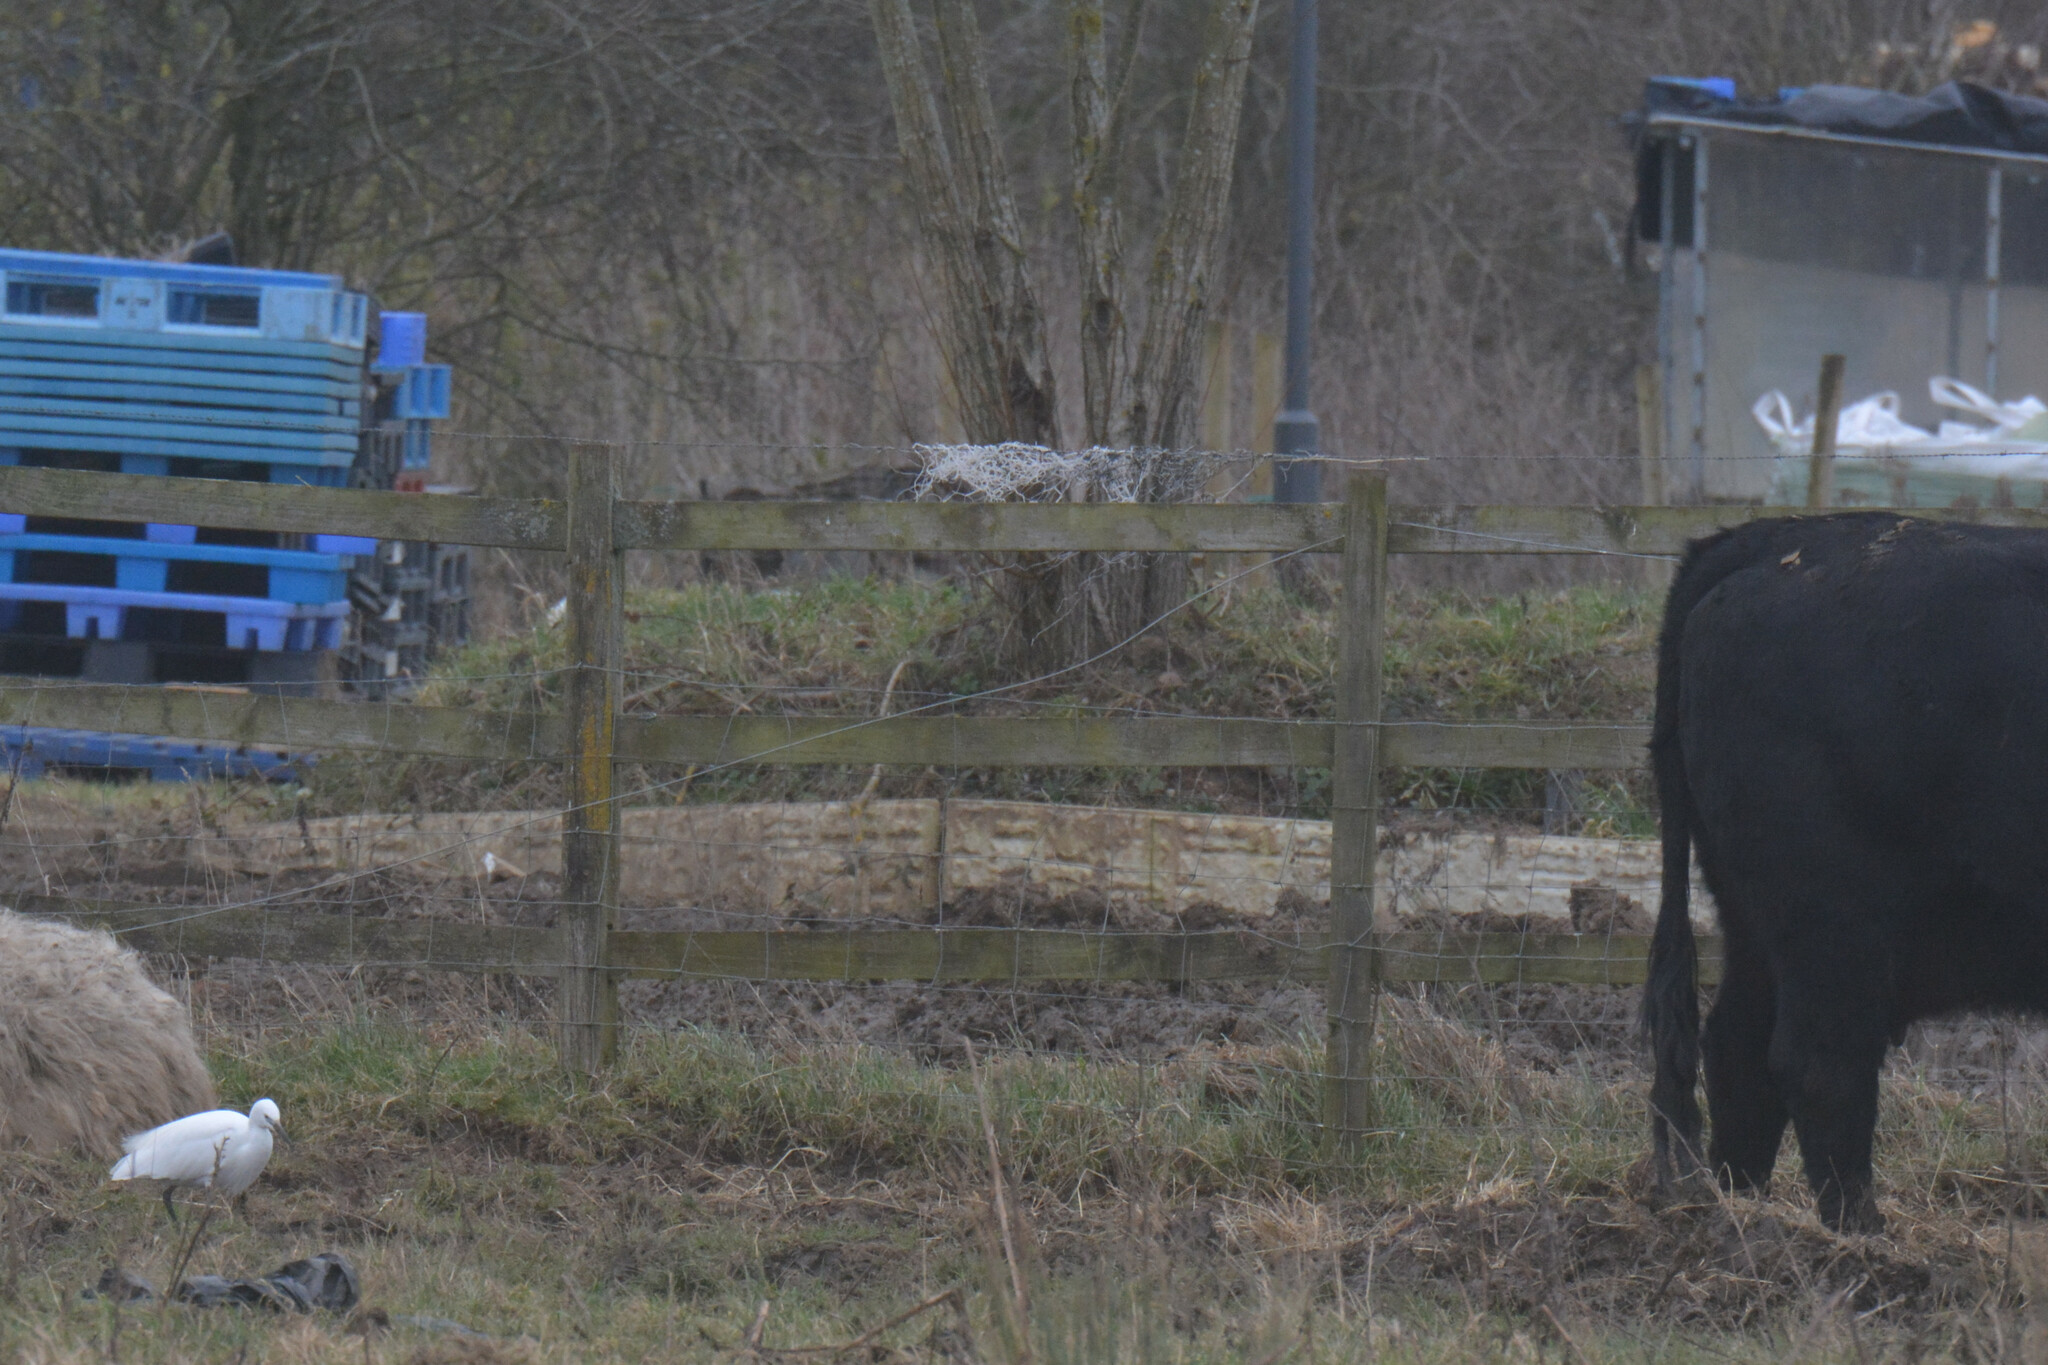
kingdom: Animalia
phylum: Chordata
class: Aves
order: Pelecaniformes
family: Ardeidae
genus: Egretta
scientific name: Egretta garzetta
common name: Little egret
